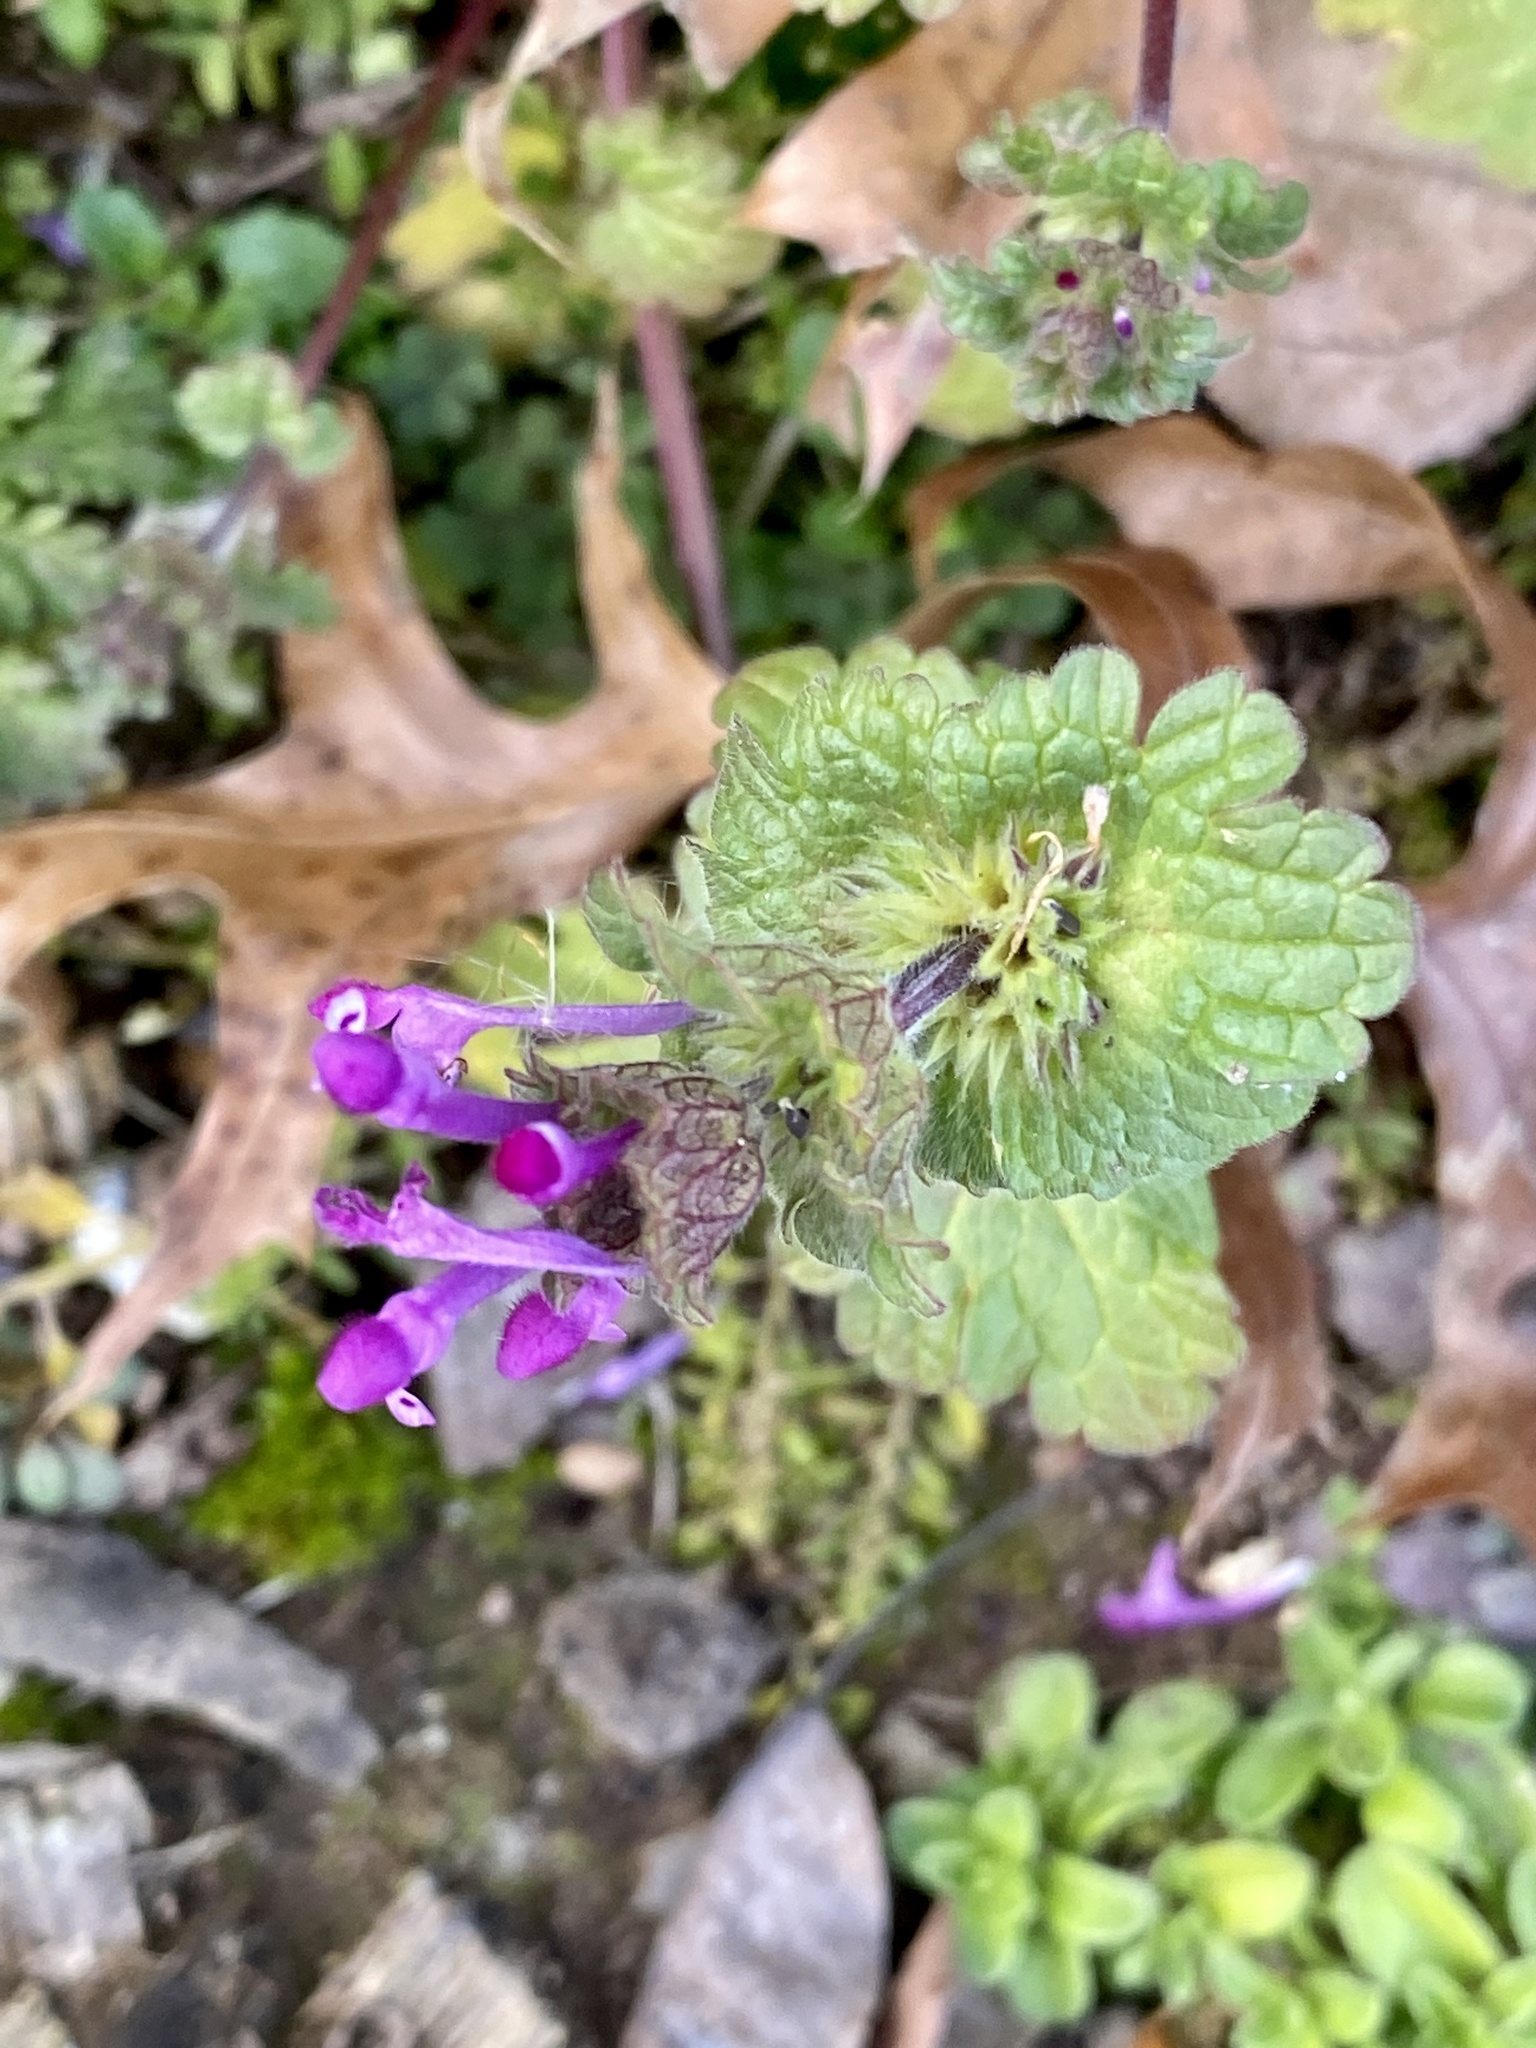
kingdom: Plantae
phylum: Tracheophyta
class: Magnoliopsida
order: Lamiales
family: Lamiaceae
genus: Lamium
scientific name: Lamium amplexicaule
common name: Henbit dead-nettle
